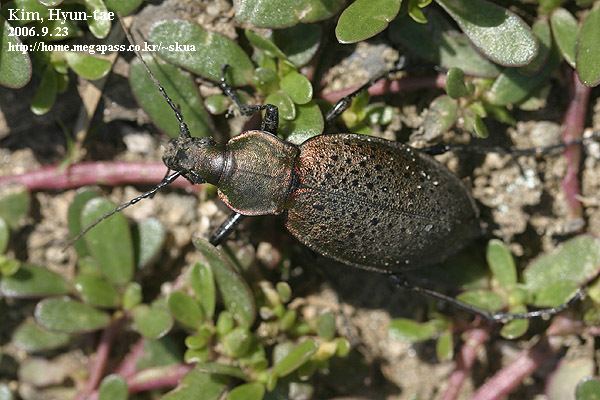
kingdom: Animalia
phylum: Arthropoda
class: Insecta
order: Coleoptera
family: Carabidae
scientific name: Carabidae
